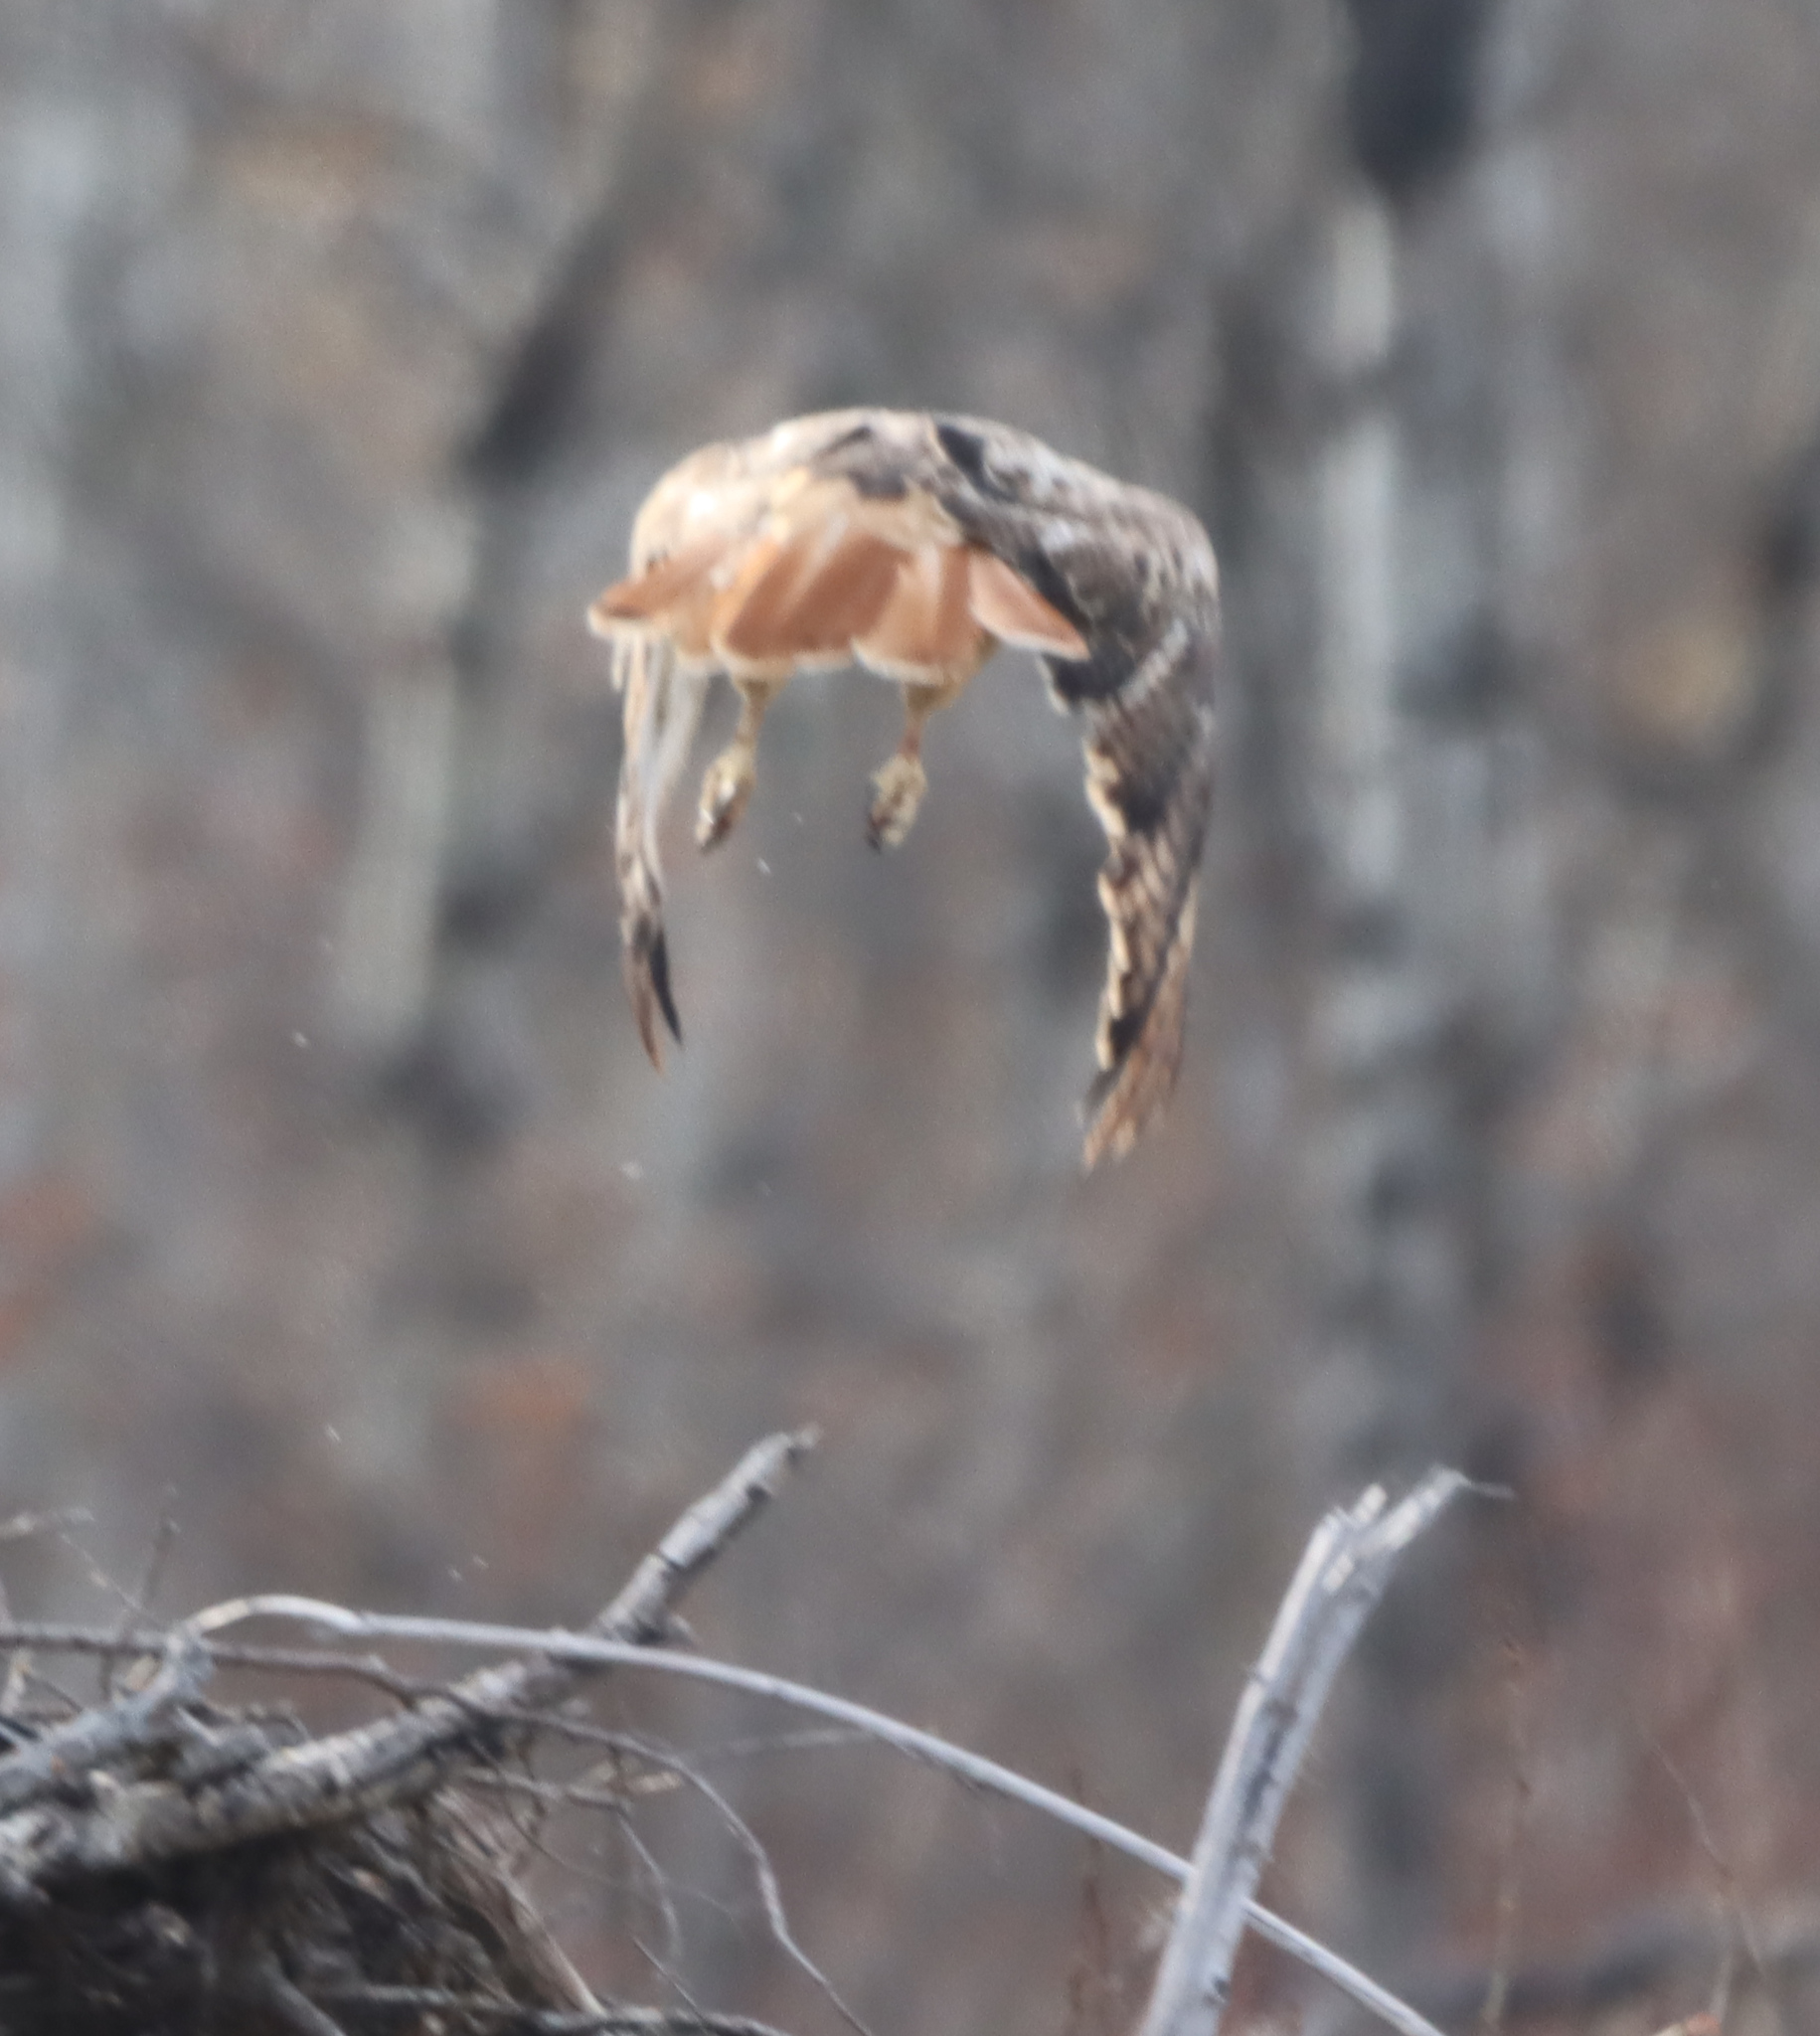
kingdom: Animalia
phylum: Chordata
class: Aves
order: Accipitriformes
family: Accipitridae
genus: Buteo
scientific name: Buteo jamaicensis
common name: Red-tailed hawk
